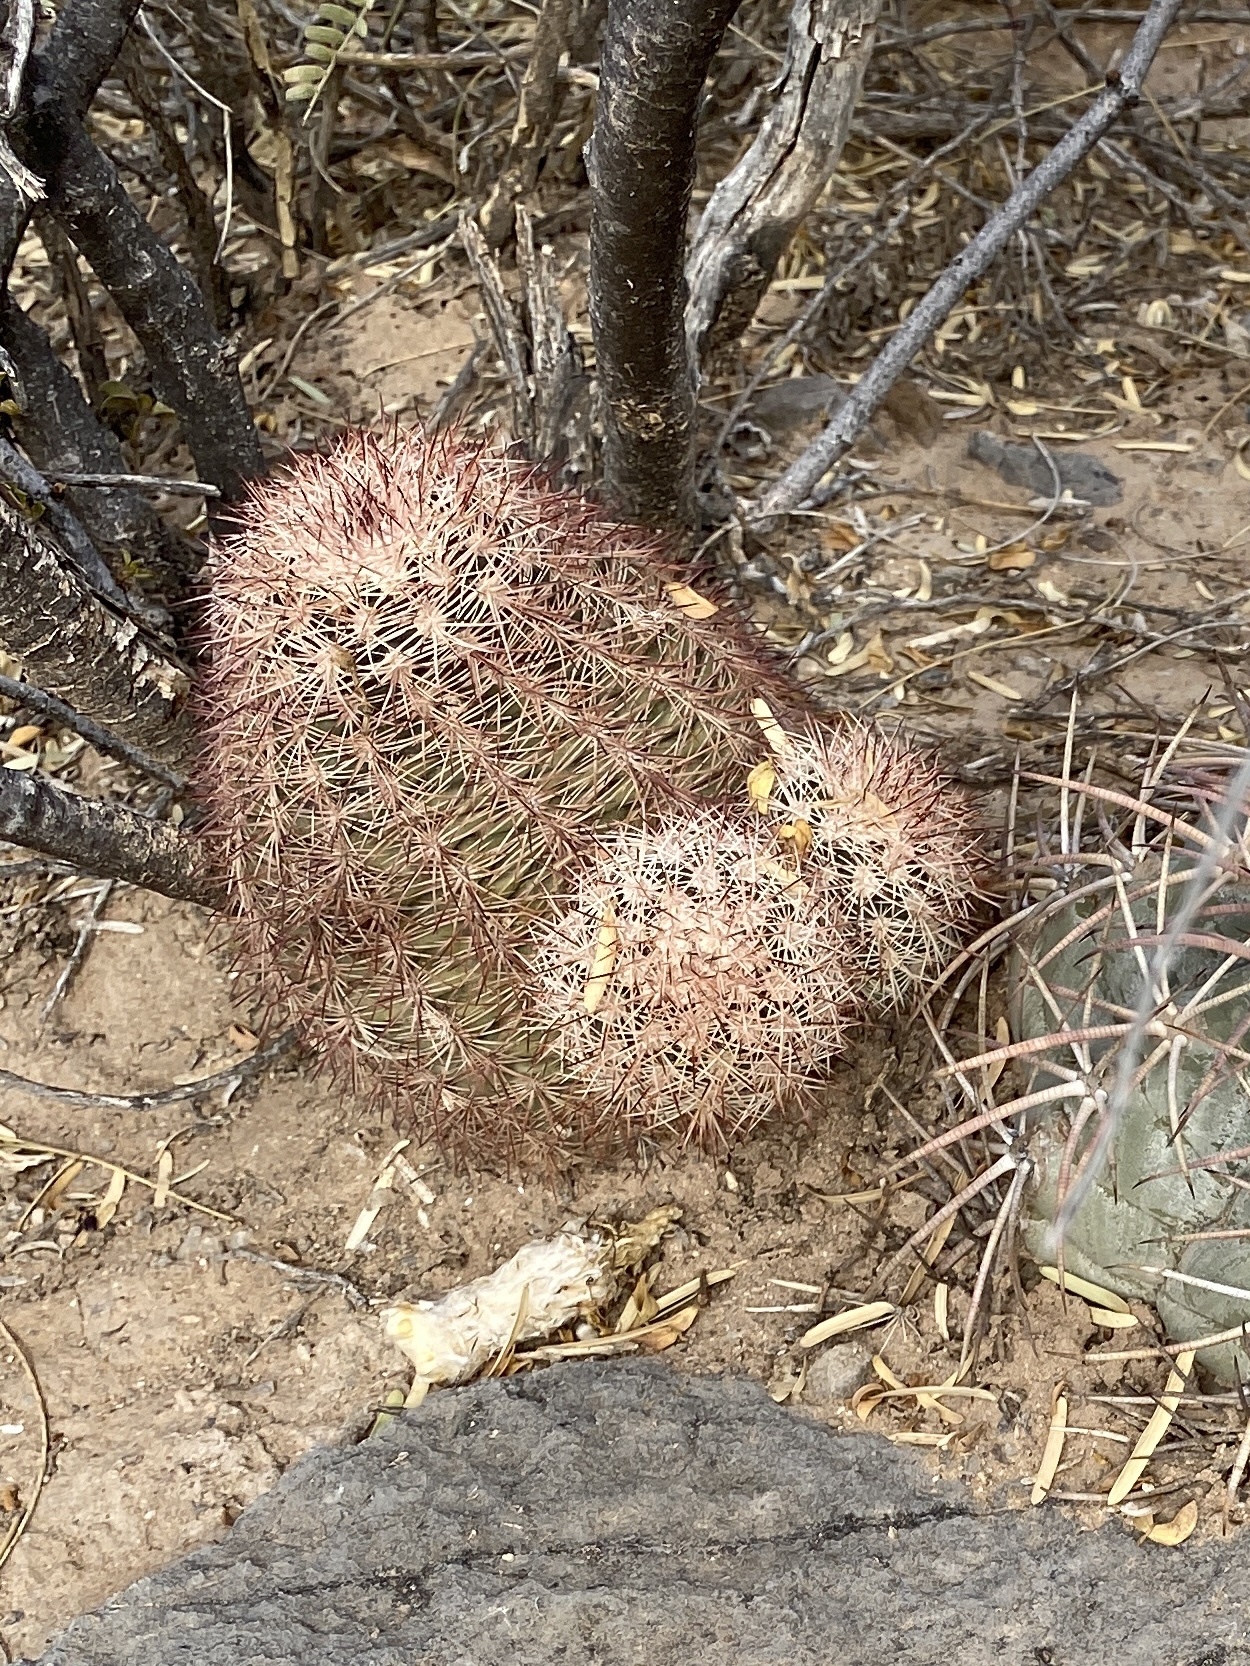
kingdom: Plantae
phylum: Tracheophyta
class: Magnoliopsida
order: Caryophyllales
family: Cactaceae
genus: Echinocereus
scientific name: Echinocereus dasyacanthus
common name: Spiny hedgehog cactus
